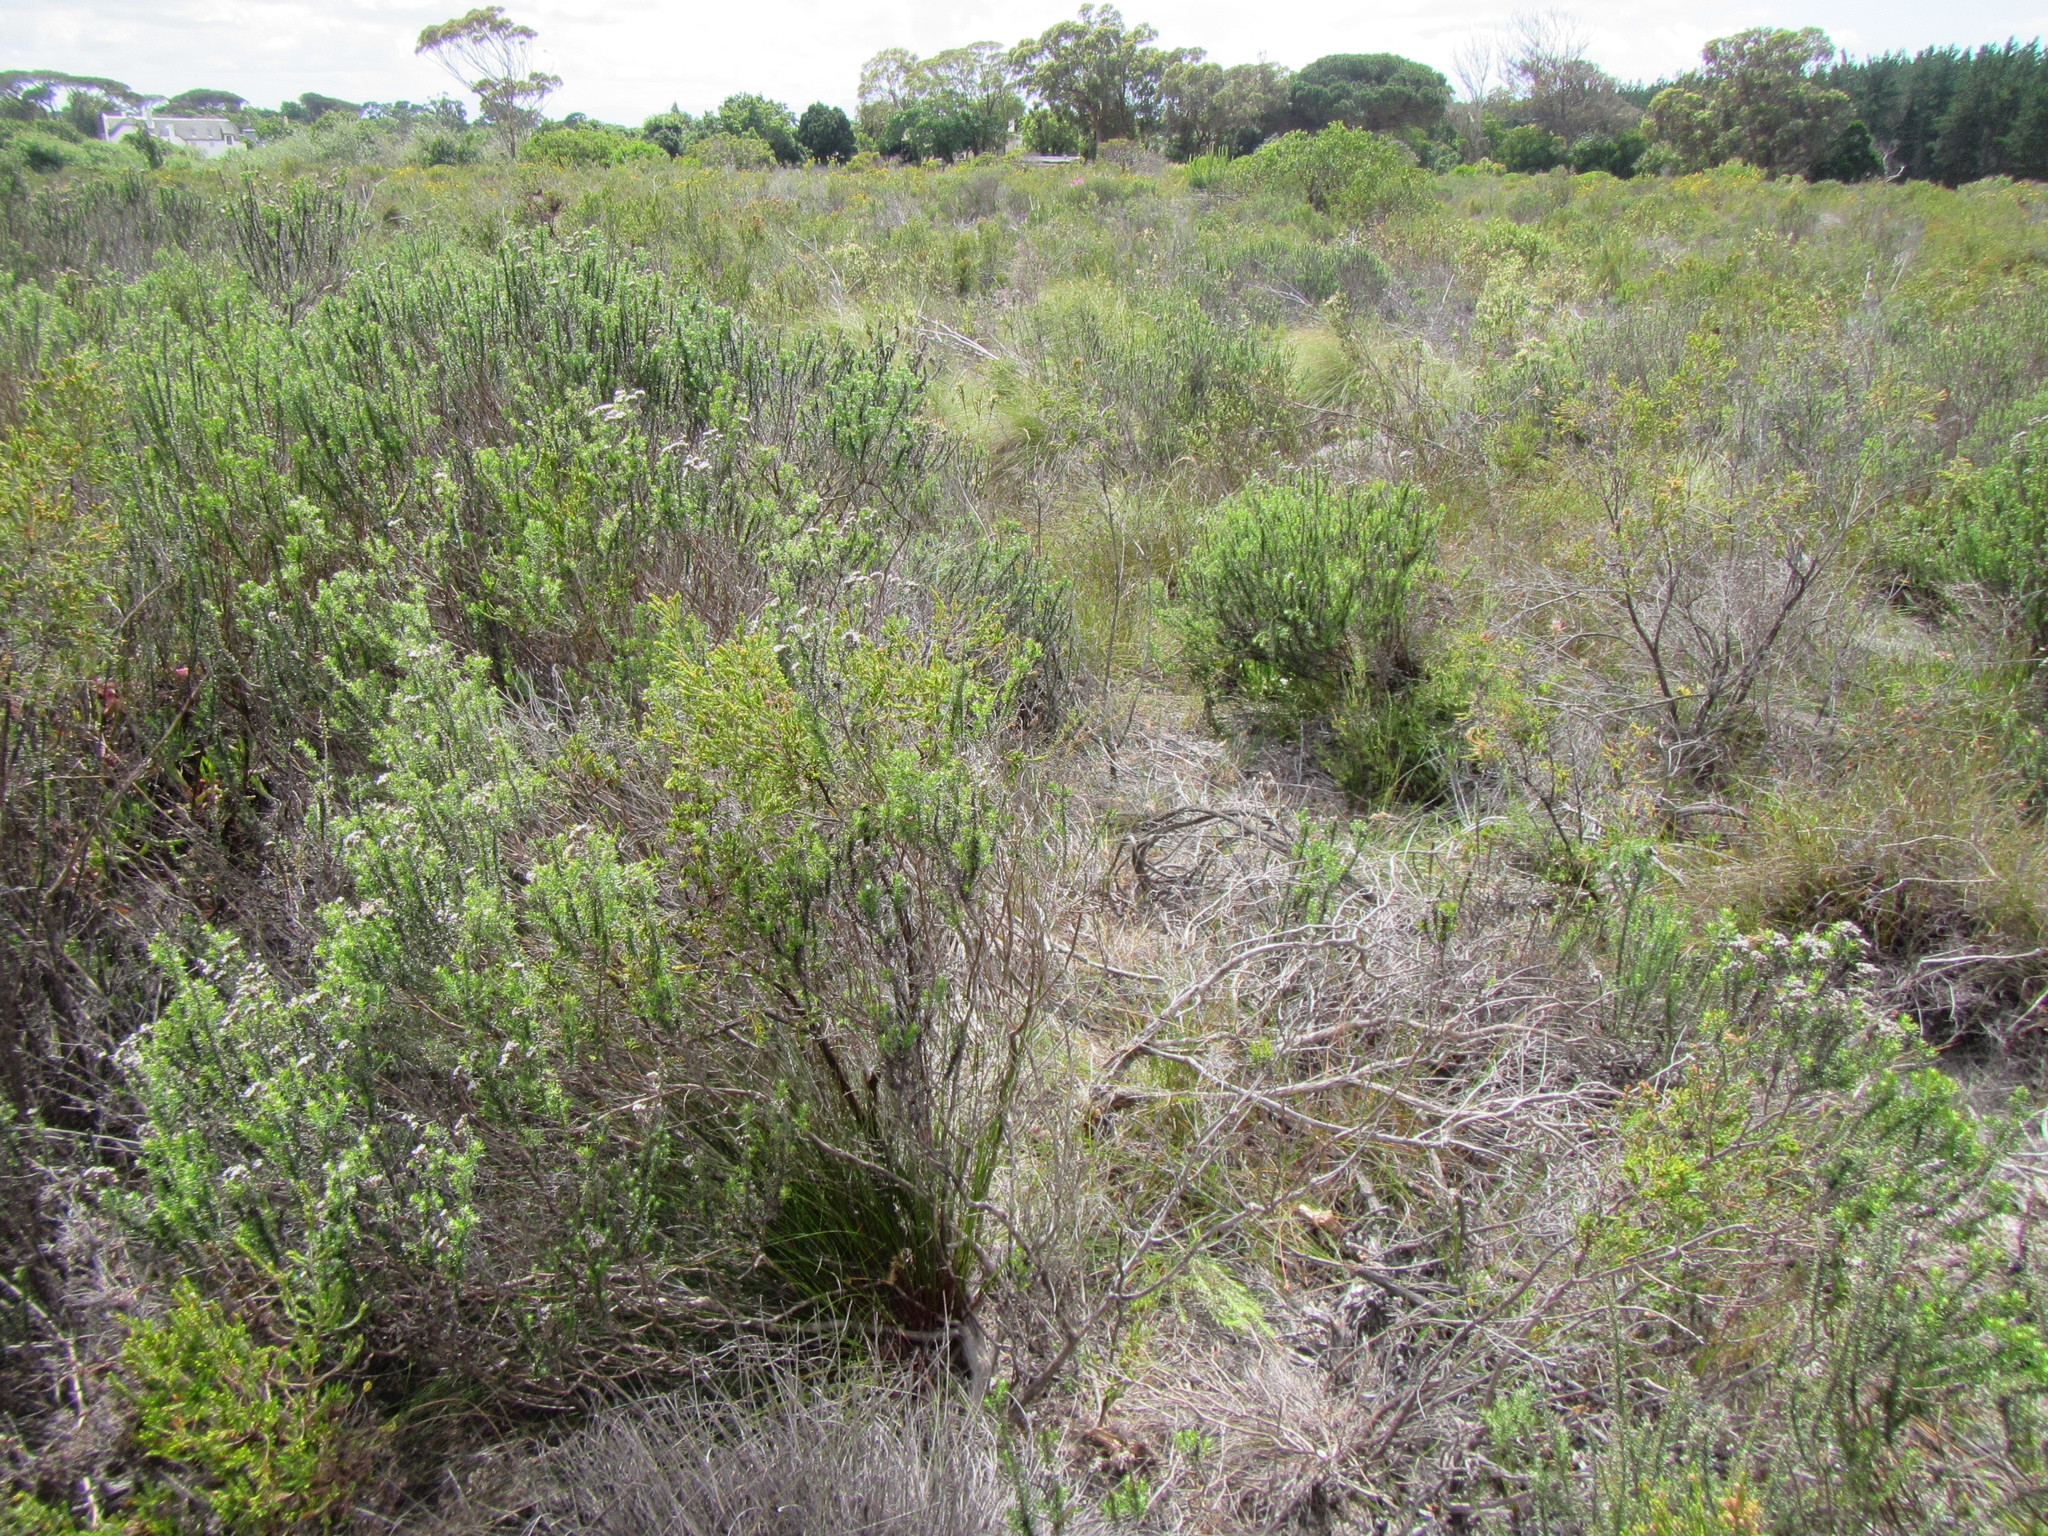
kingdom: Plantae
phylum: Tracheophyta
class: Liliopsida
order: Poales
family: Cyperaceae
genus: Schoenus
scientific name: Schoenus inconspicuus
